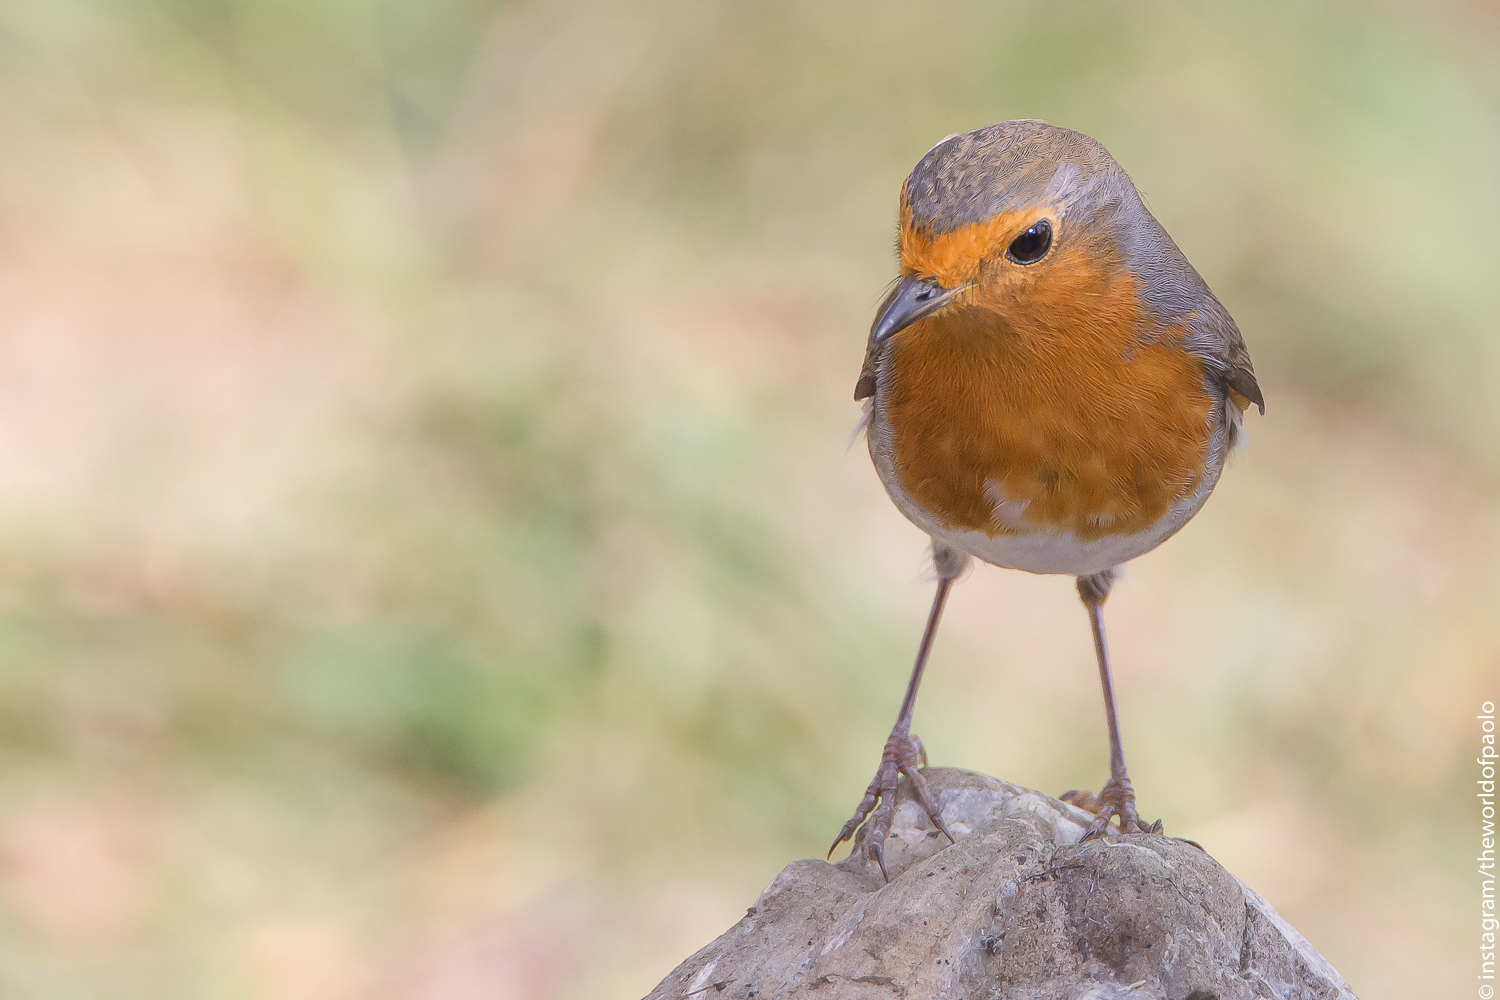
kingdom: Animalia
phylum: Chordata
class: Aves
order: Passeriformes
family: Muscicapidae
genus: Erithacus
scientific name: Erithacus rubecula
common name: European robin
